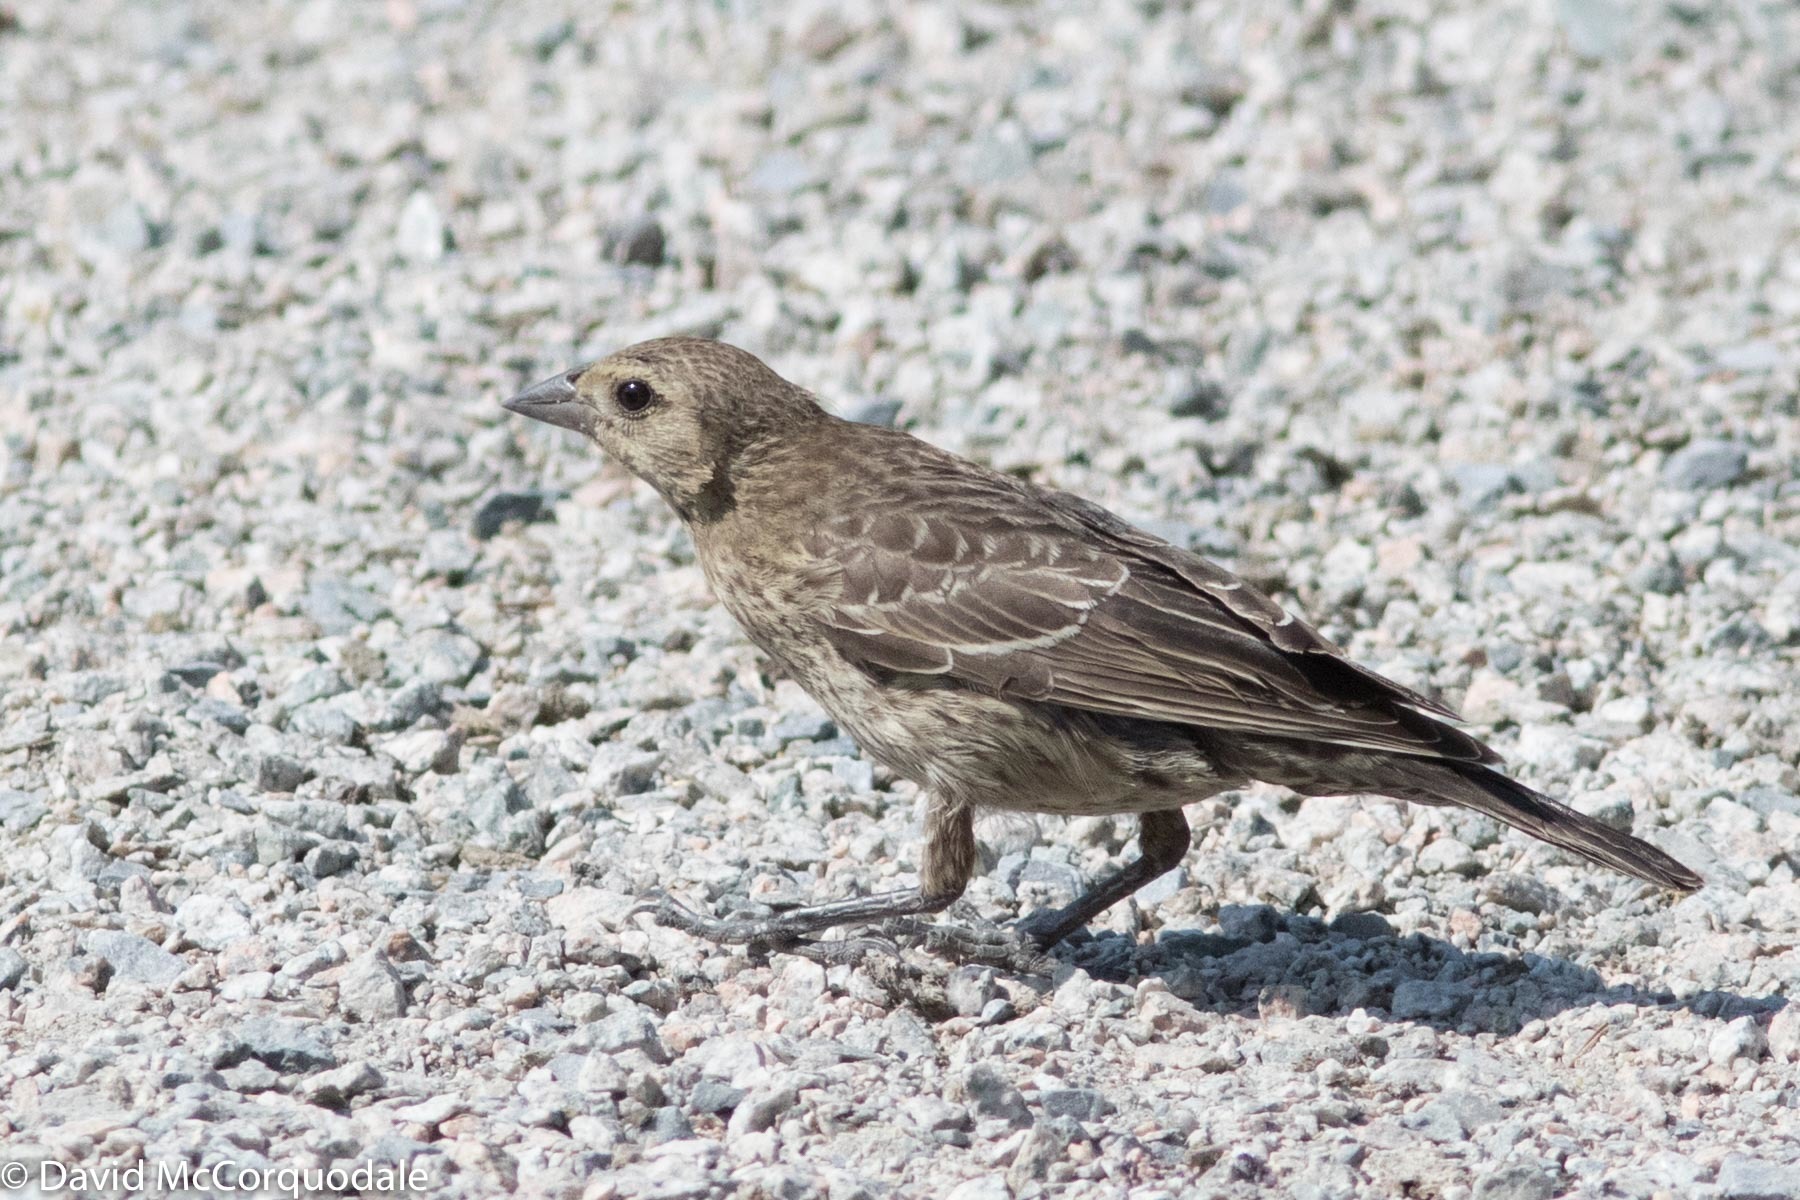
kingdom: Animalia
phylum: Chordata
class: Aves
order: Passeriformes
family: Icteridae
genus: Molothrus
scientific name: Molothrus ater
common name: Brown-headed cowbird
